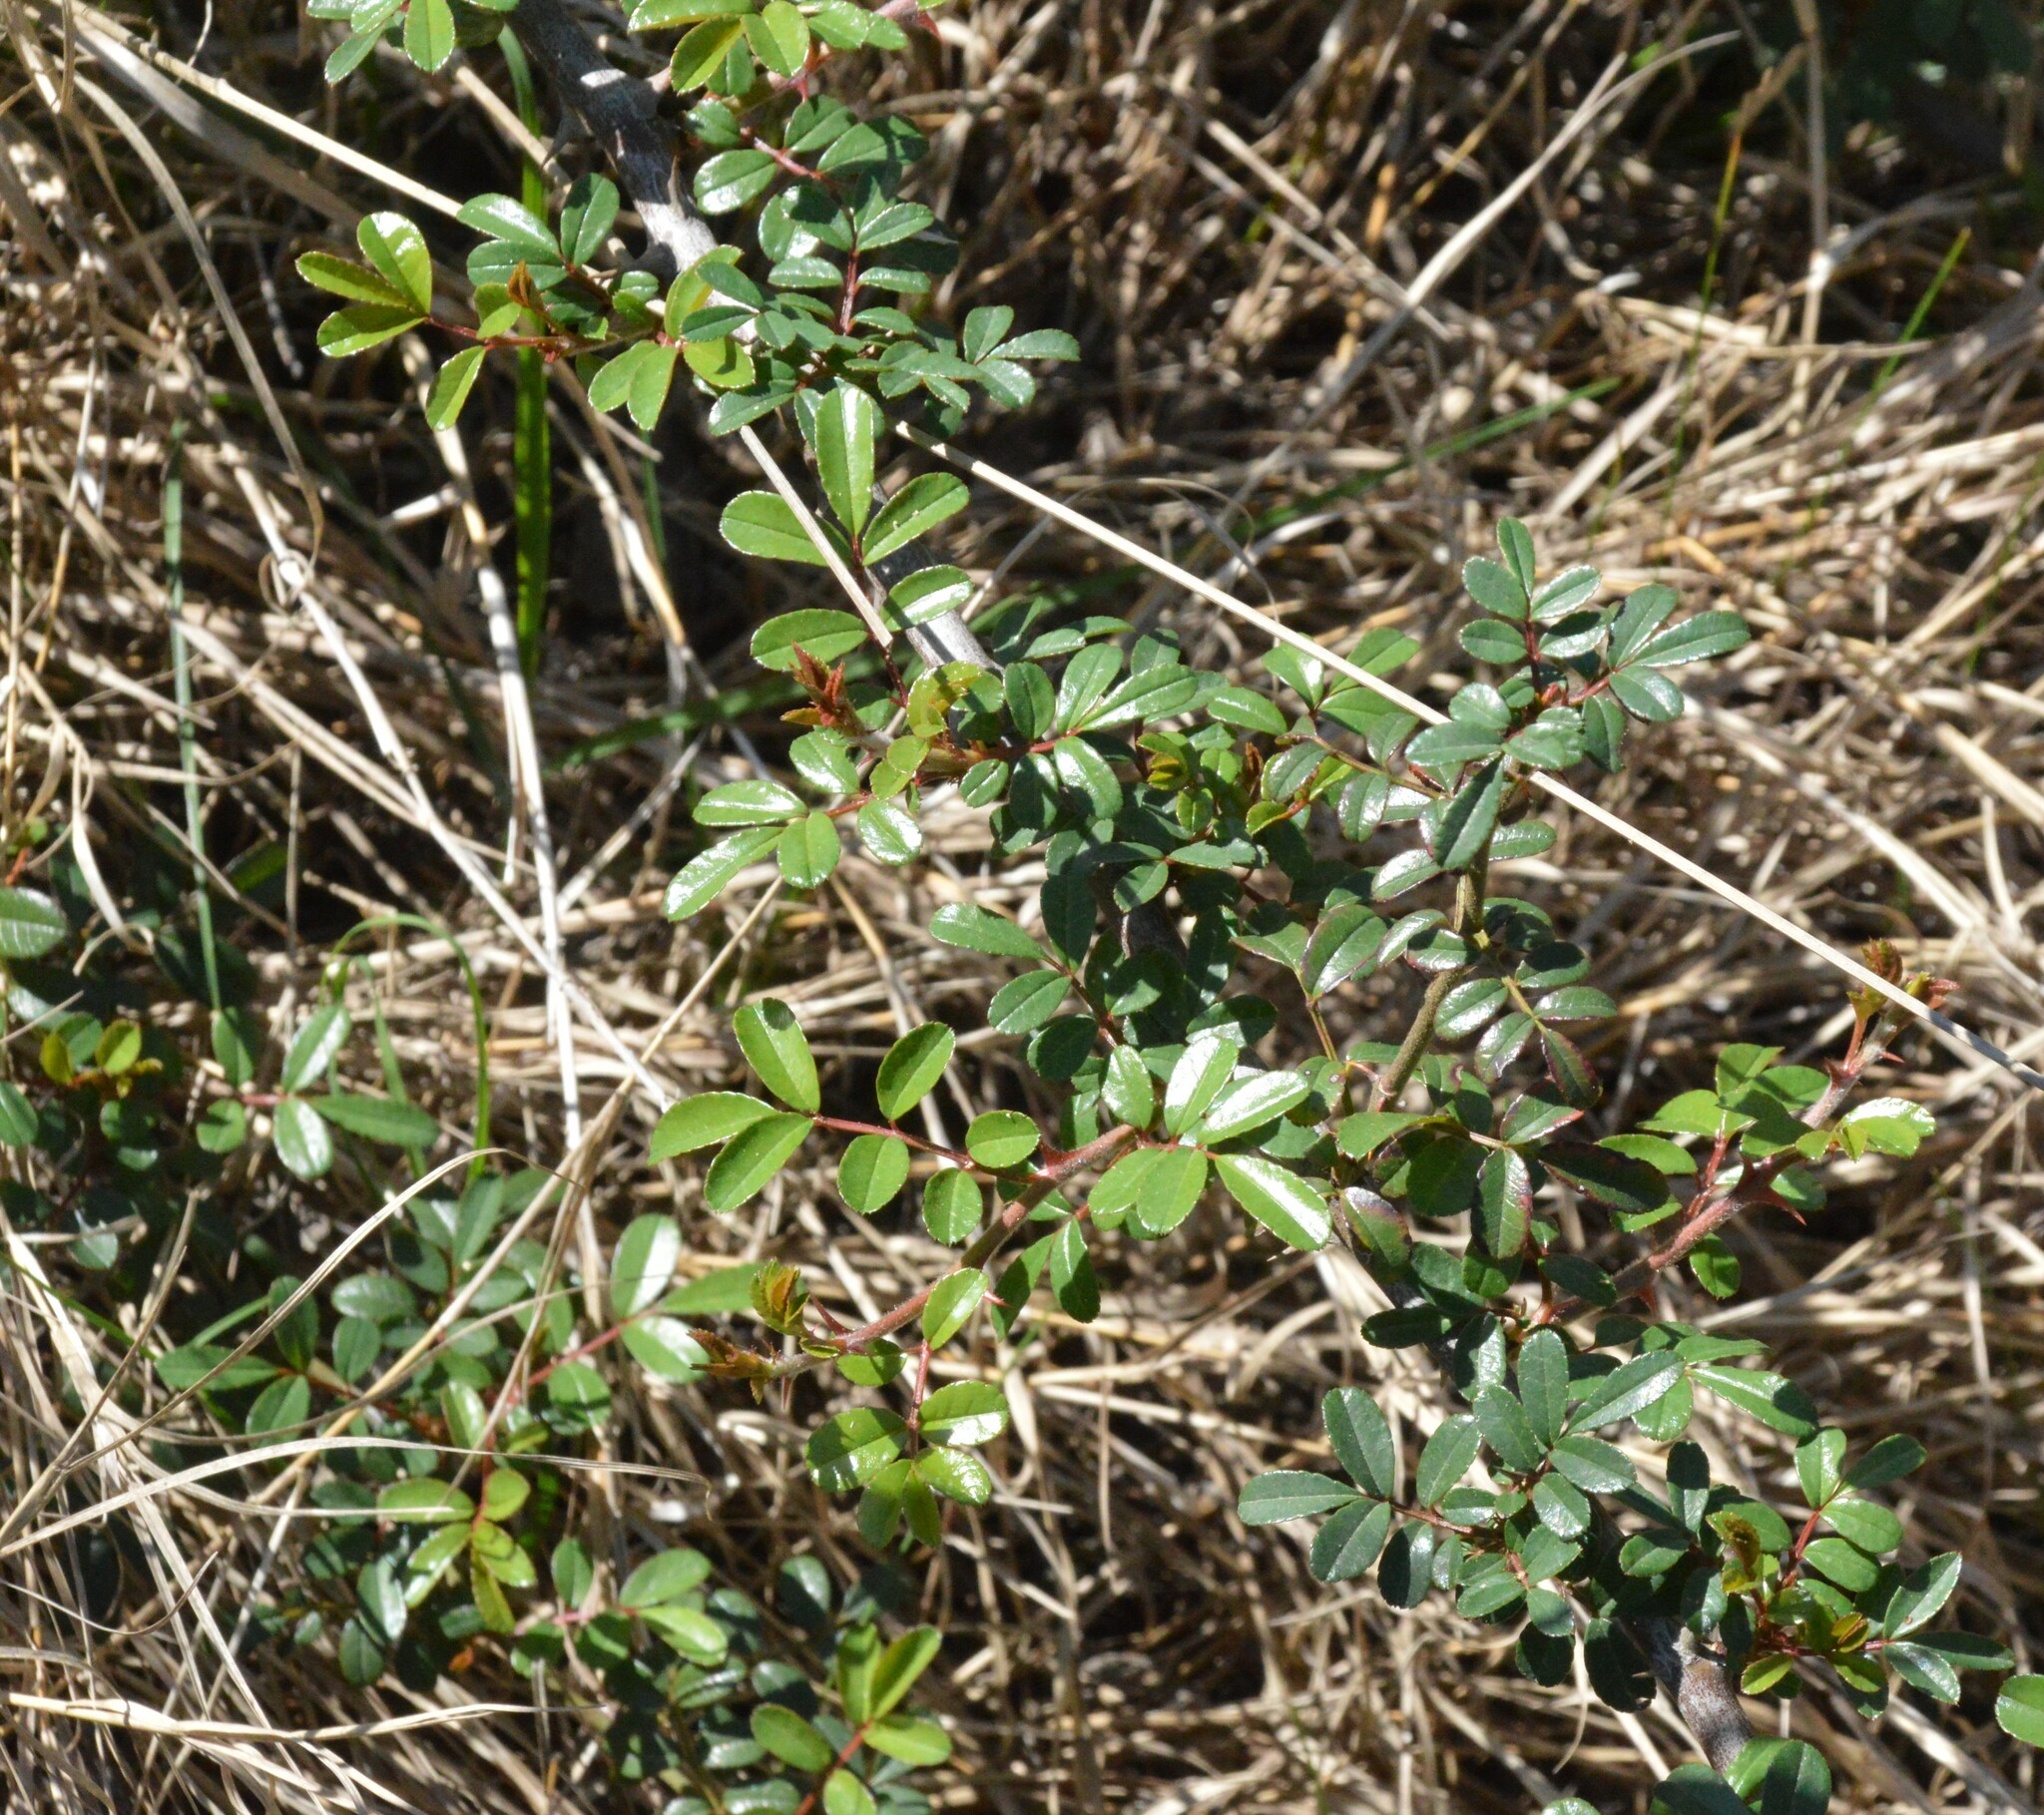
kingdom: Plantae
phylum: Tracheophyta
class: Magnoliopsida
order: Rosales
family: Rosaceae
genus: Rosa
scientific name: Rosa bracteata
